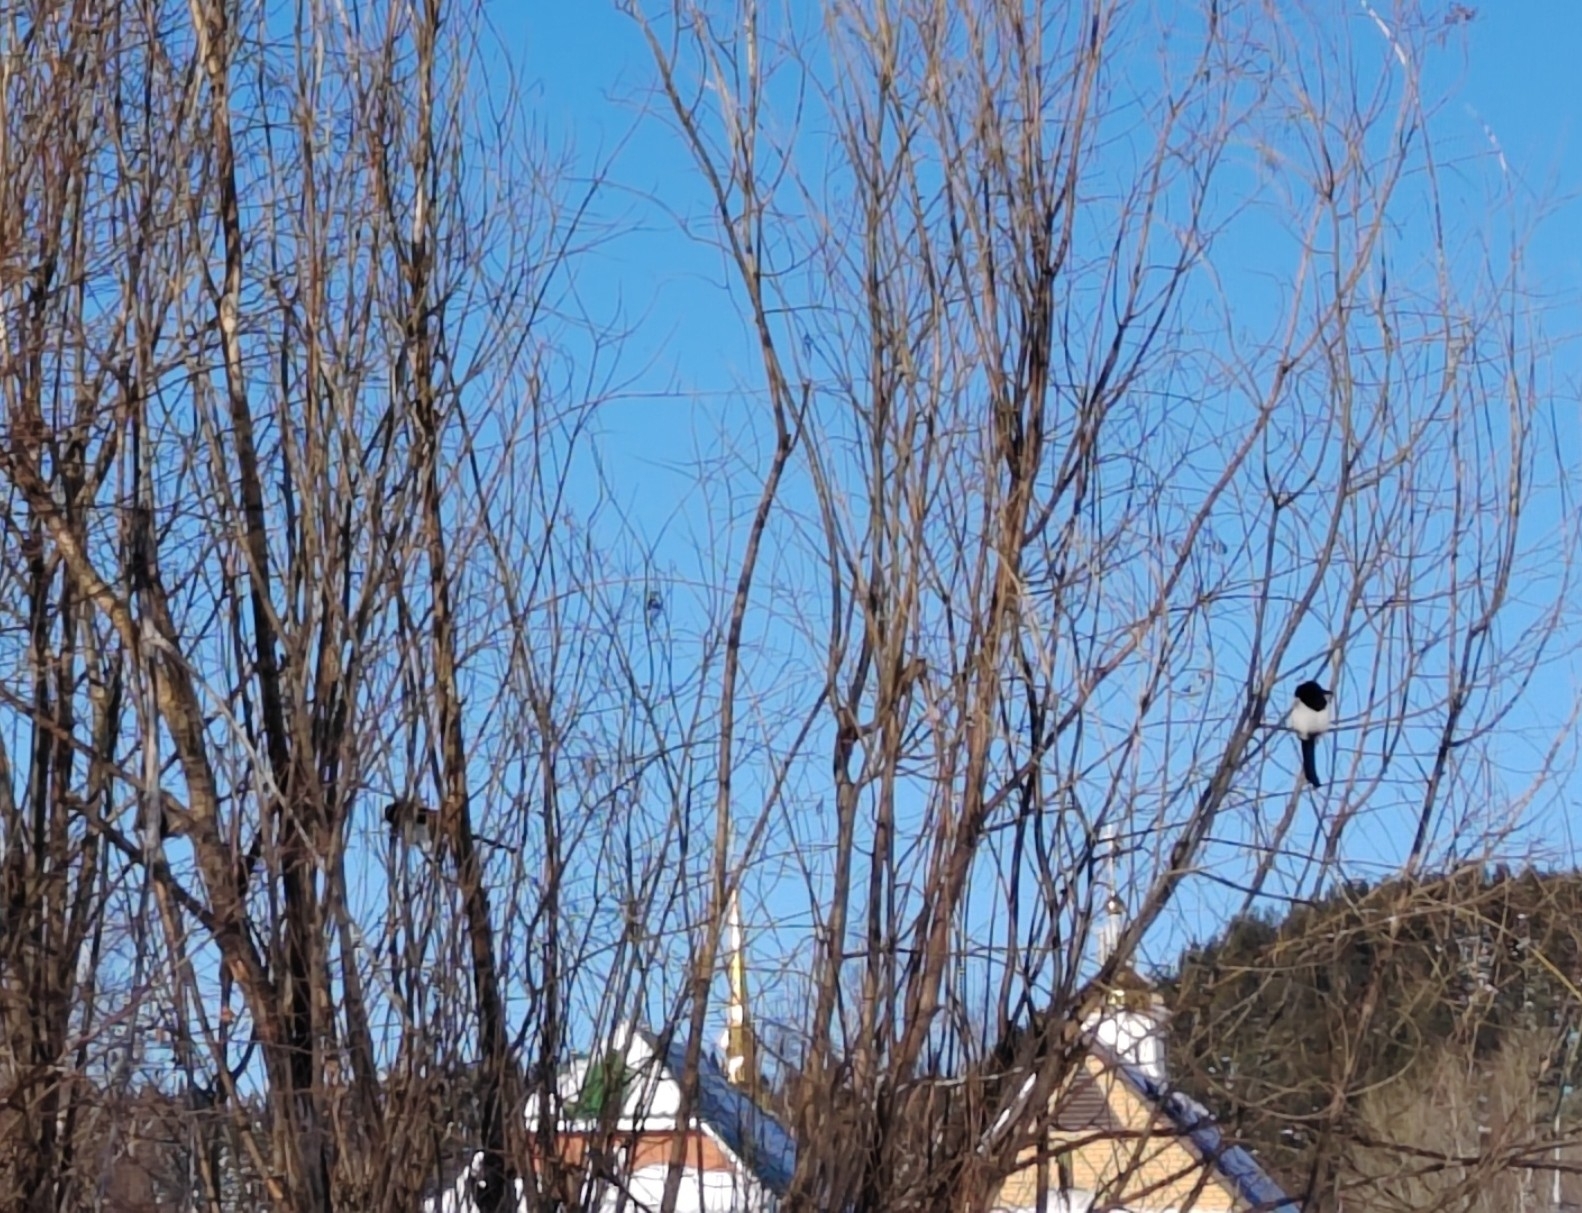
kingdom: Animalia
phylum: Chordata
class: Aves
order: Passeriformes
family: Corvidae
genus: Pica
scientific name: Pica pica
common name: Eurasian magpie
